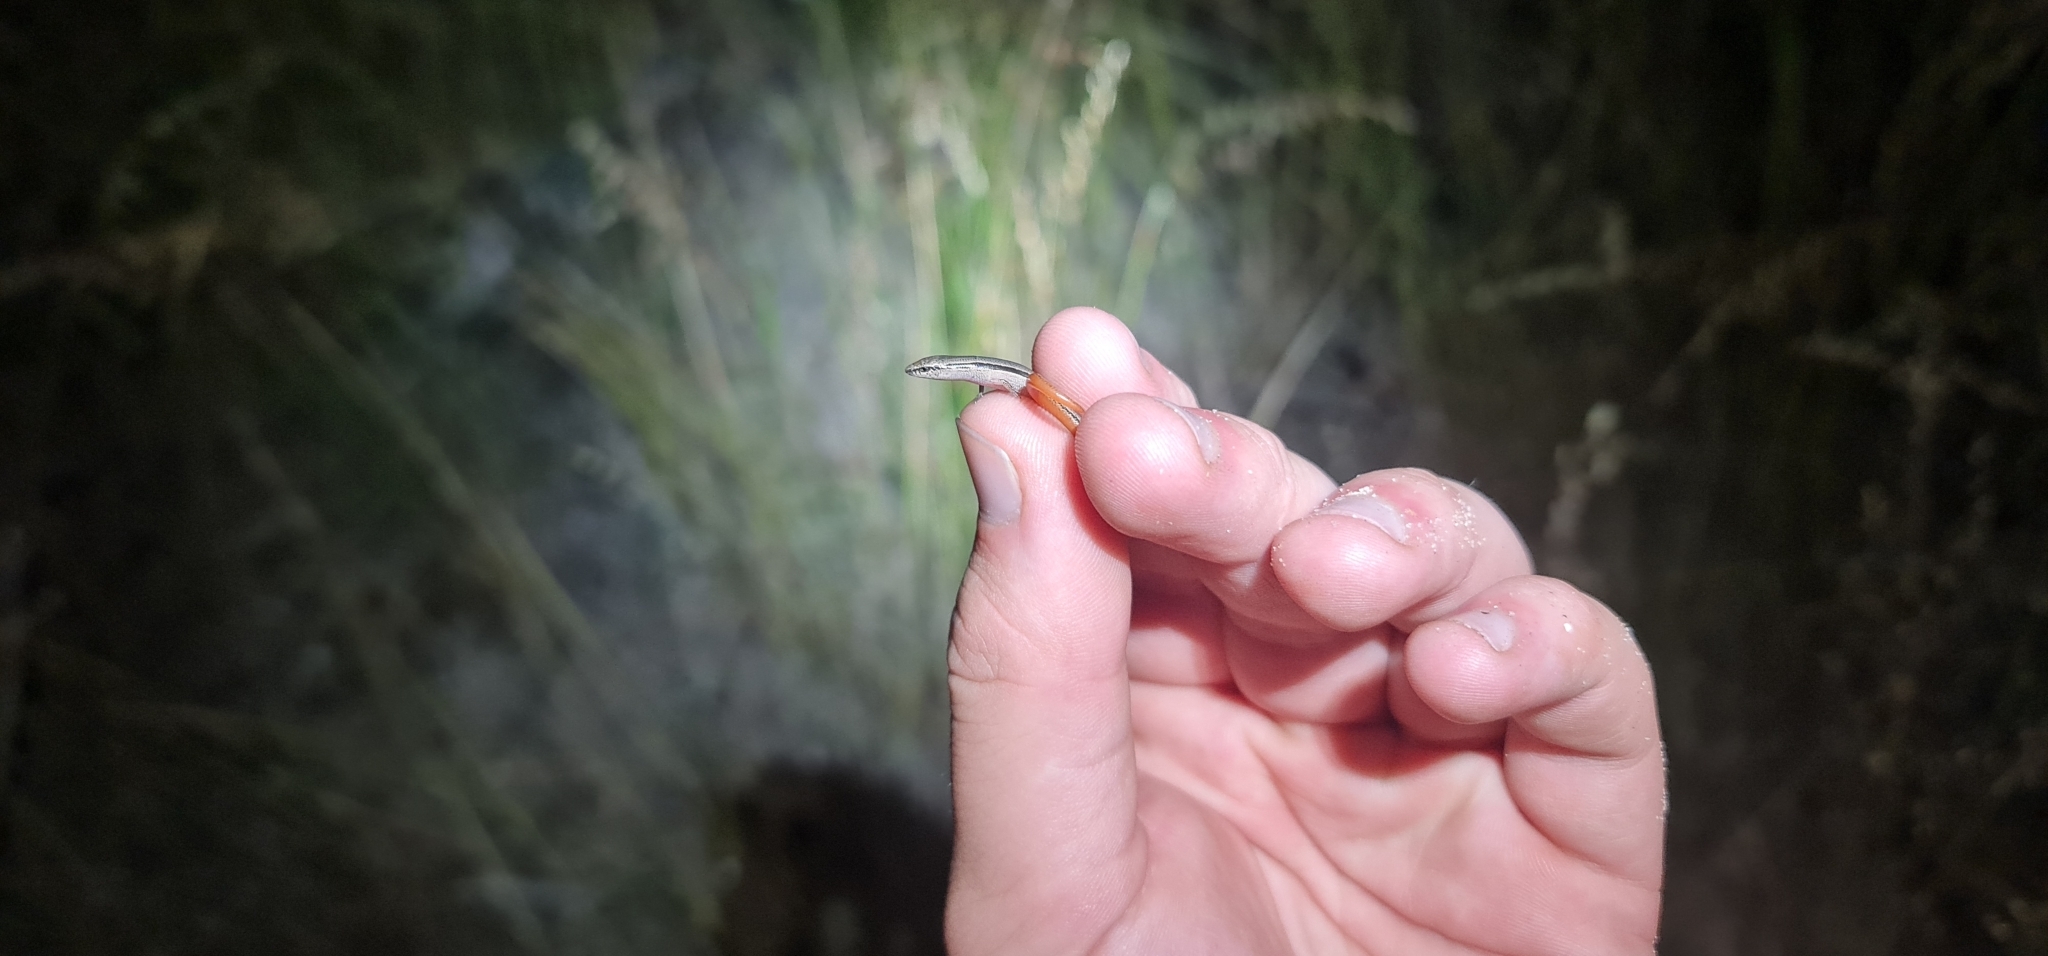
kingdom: Animalia
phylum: Chordata
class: Squamata
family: Scincidae
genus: Lerista
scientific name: Lerista dorsalis
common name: Southern slider
